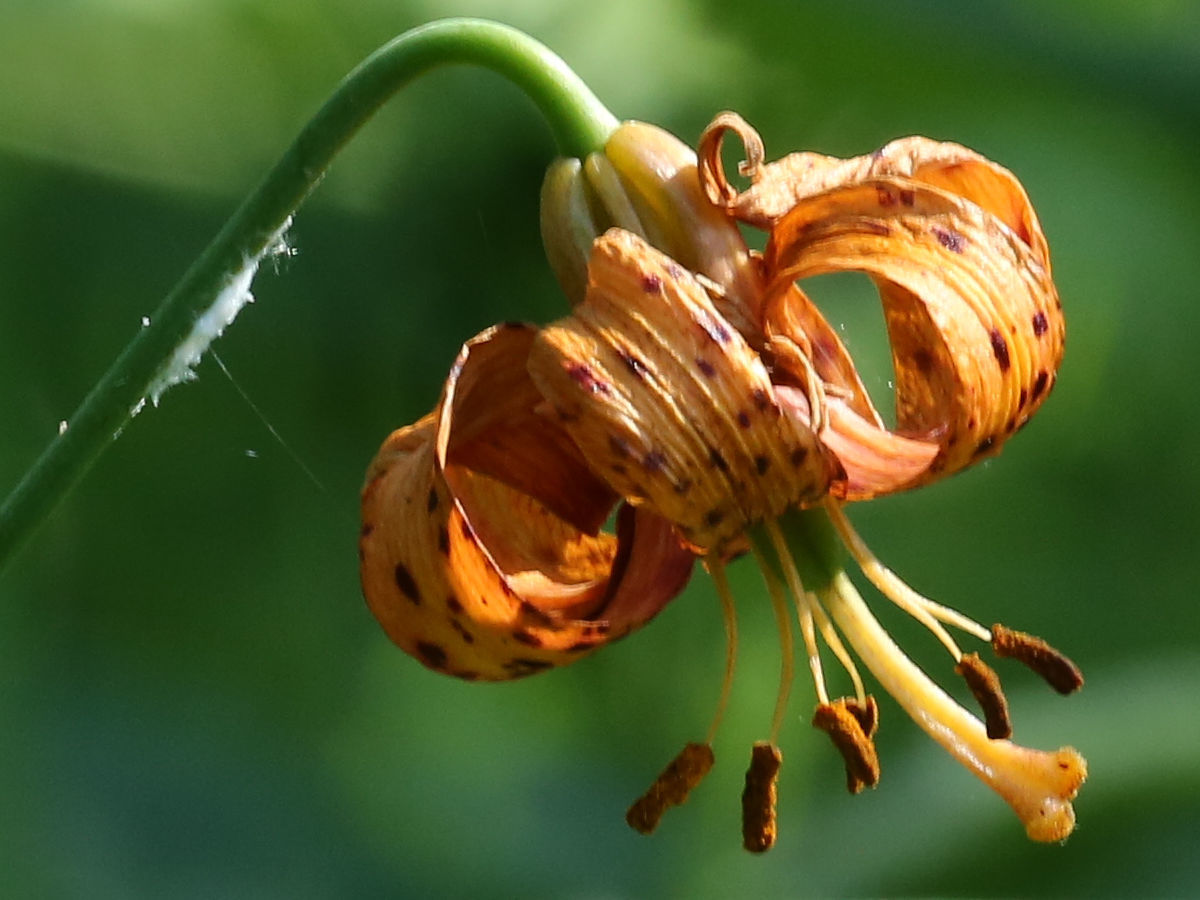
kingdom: Plantae
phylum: Tracheophyta
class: Liliopsida
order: Liliales
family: Liliaceae
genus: Lilium
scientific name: Lilium michiganense
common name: Michigan lily
